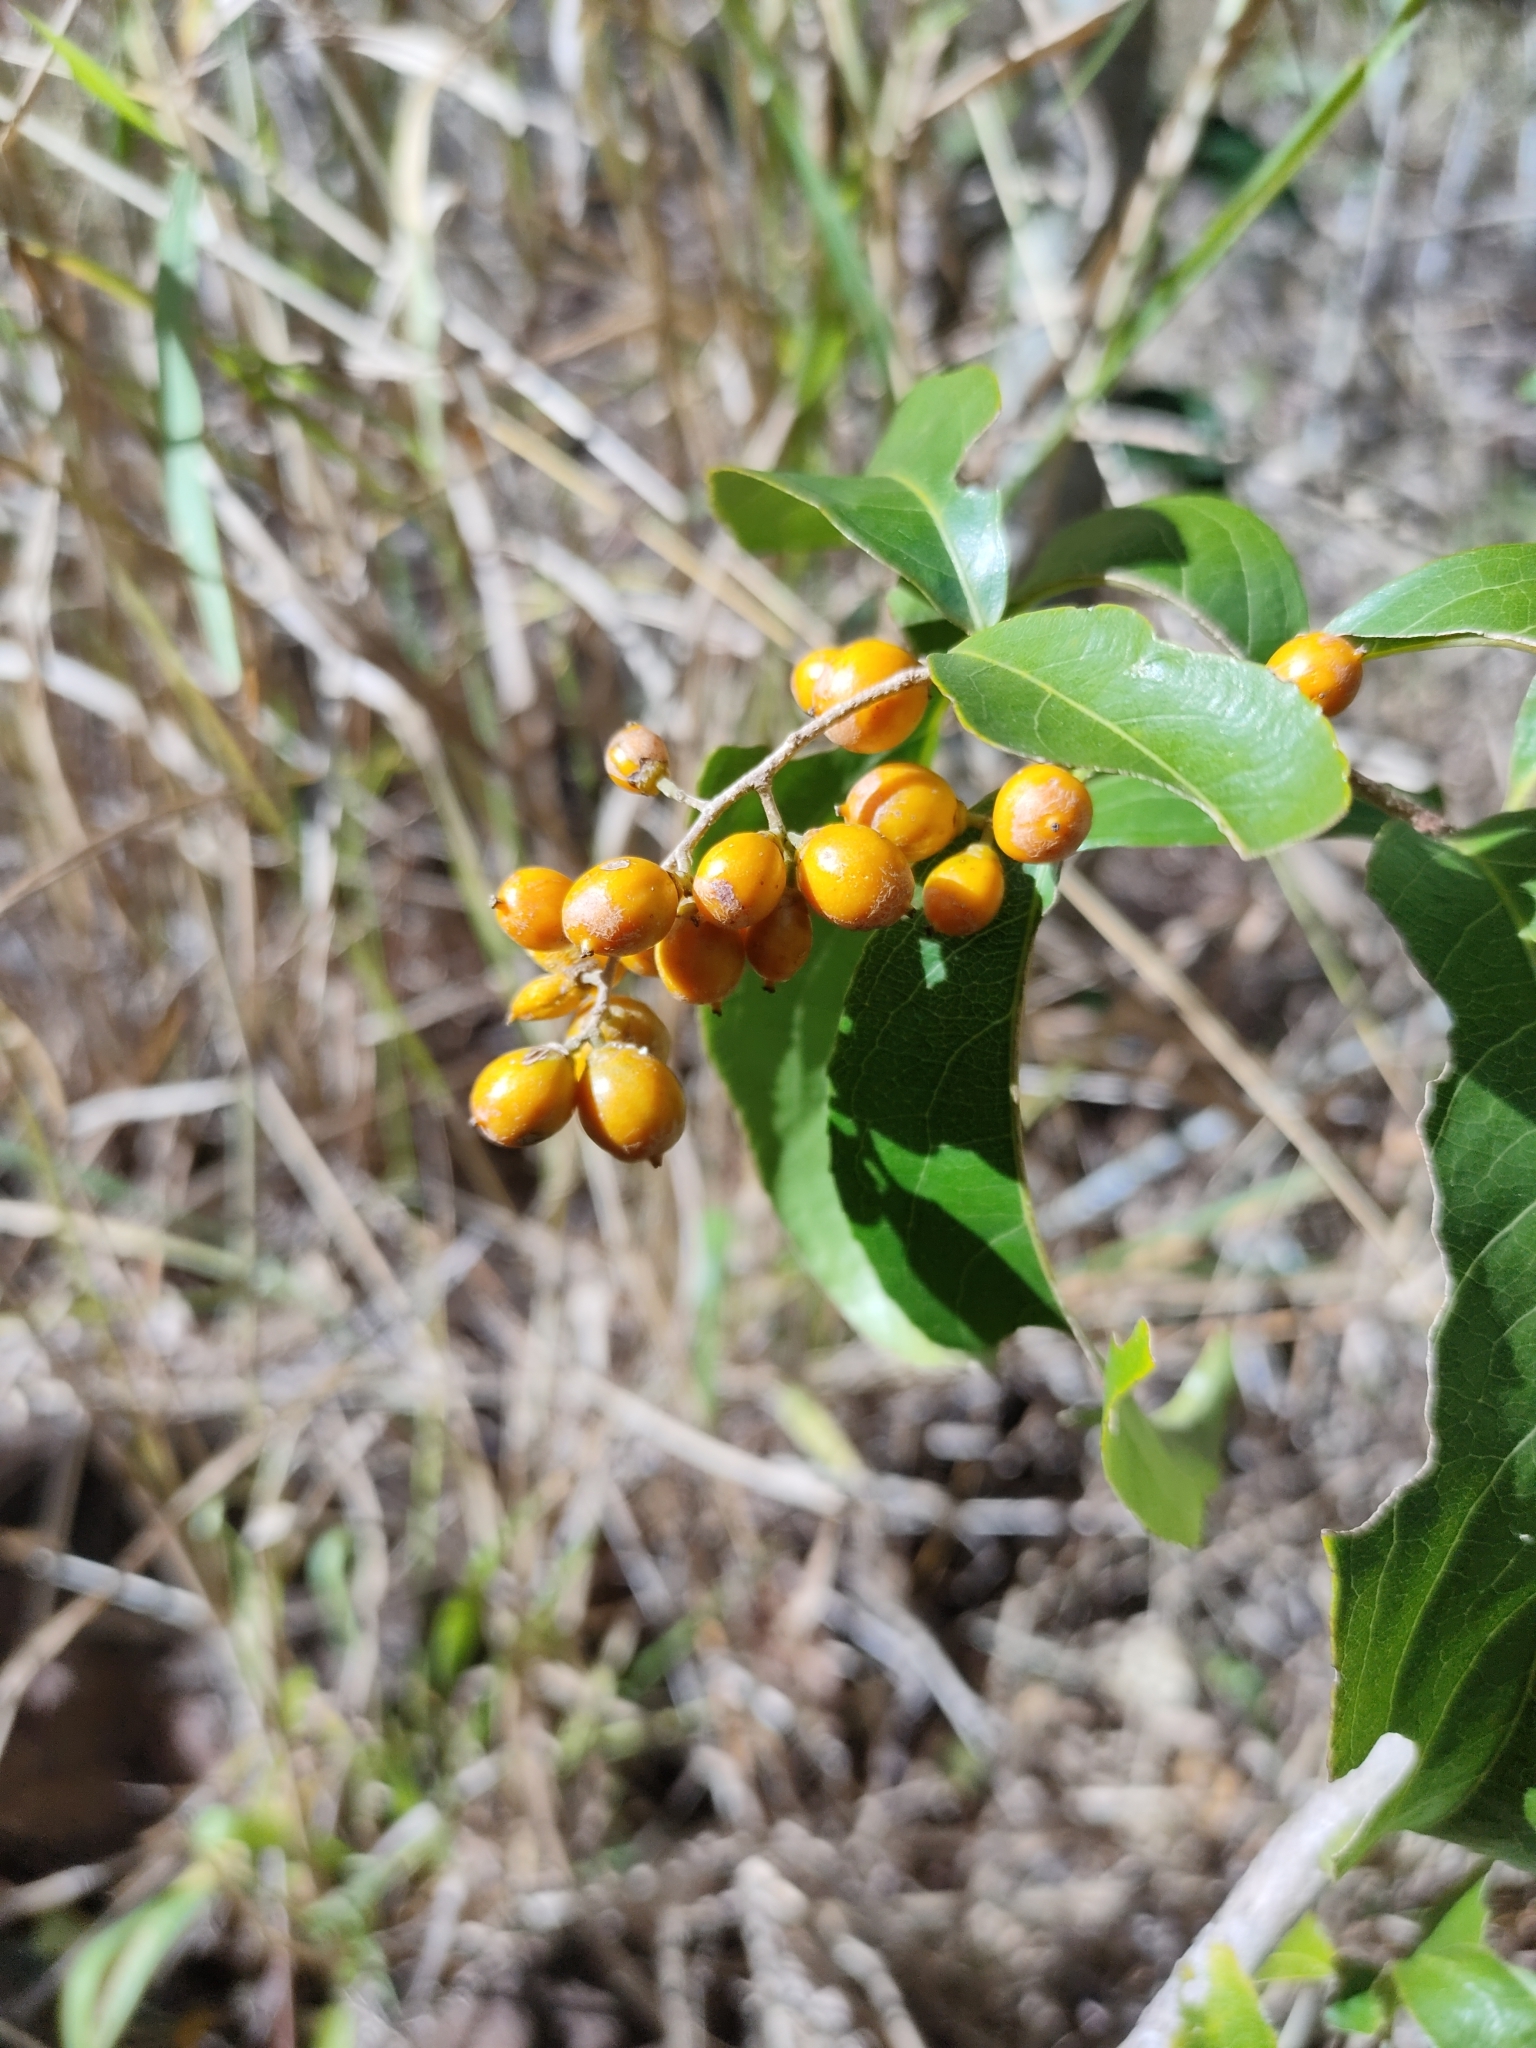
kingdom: Plantae
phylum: Tracheophyta
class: Magnoliopsida
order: Celastrales
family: Celastraceae
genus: Celastrus
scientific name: Celastrus subspicatus
